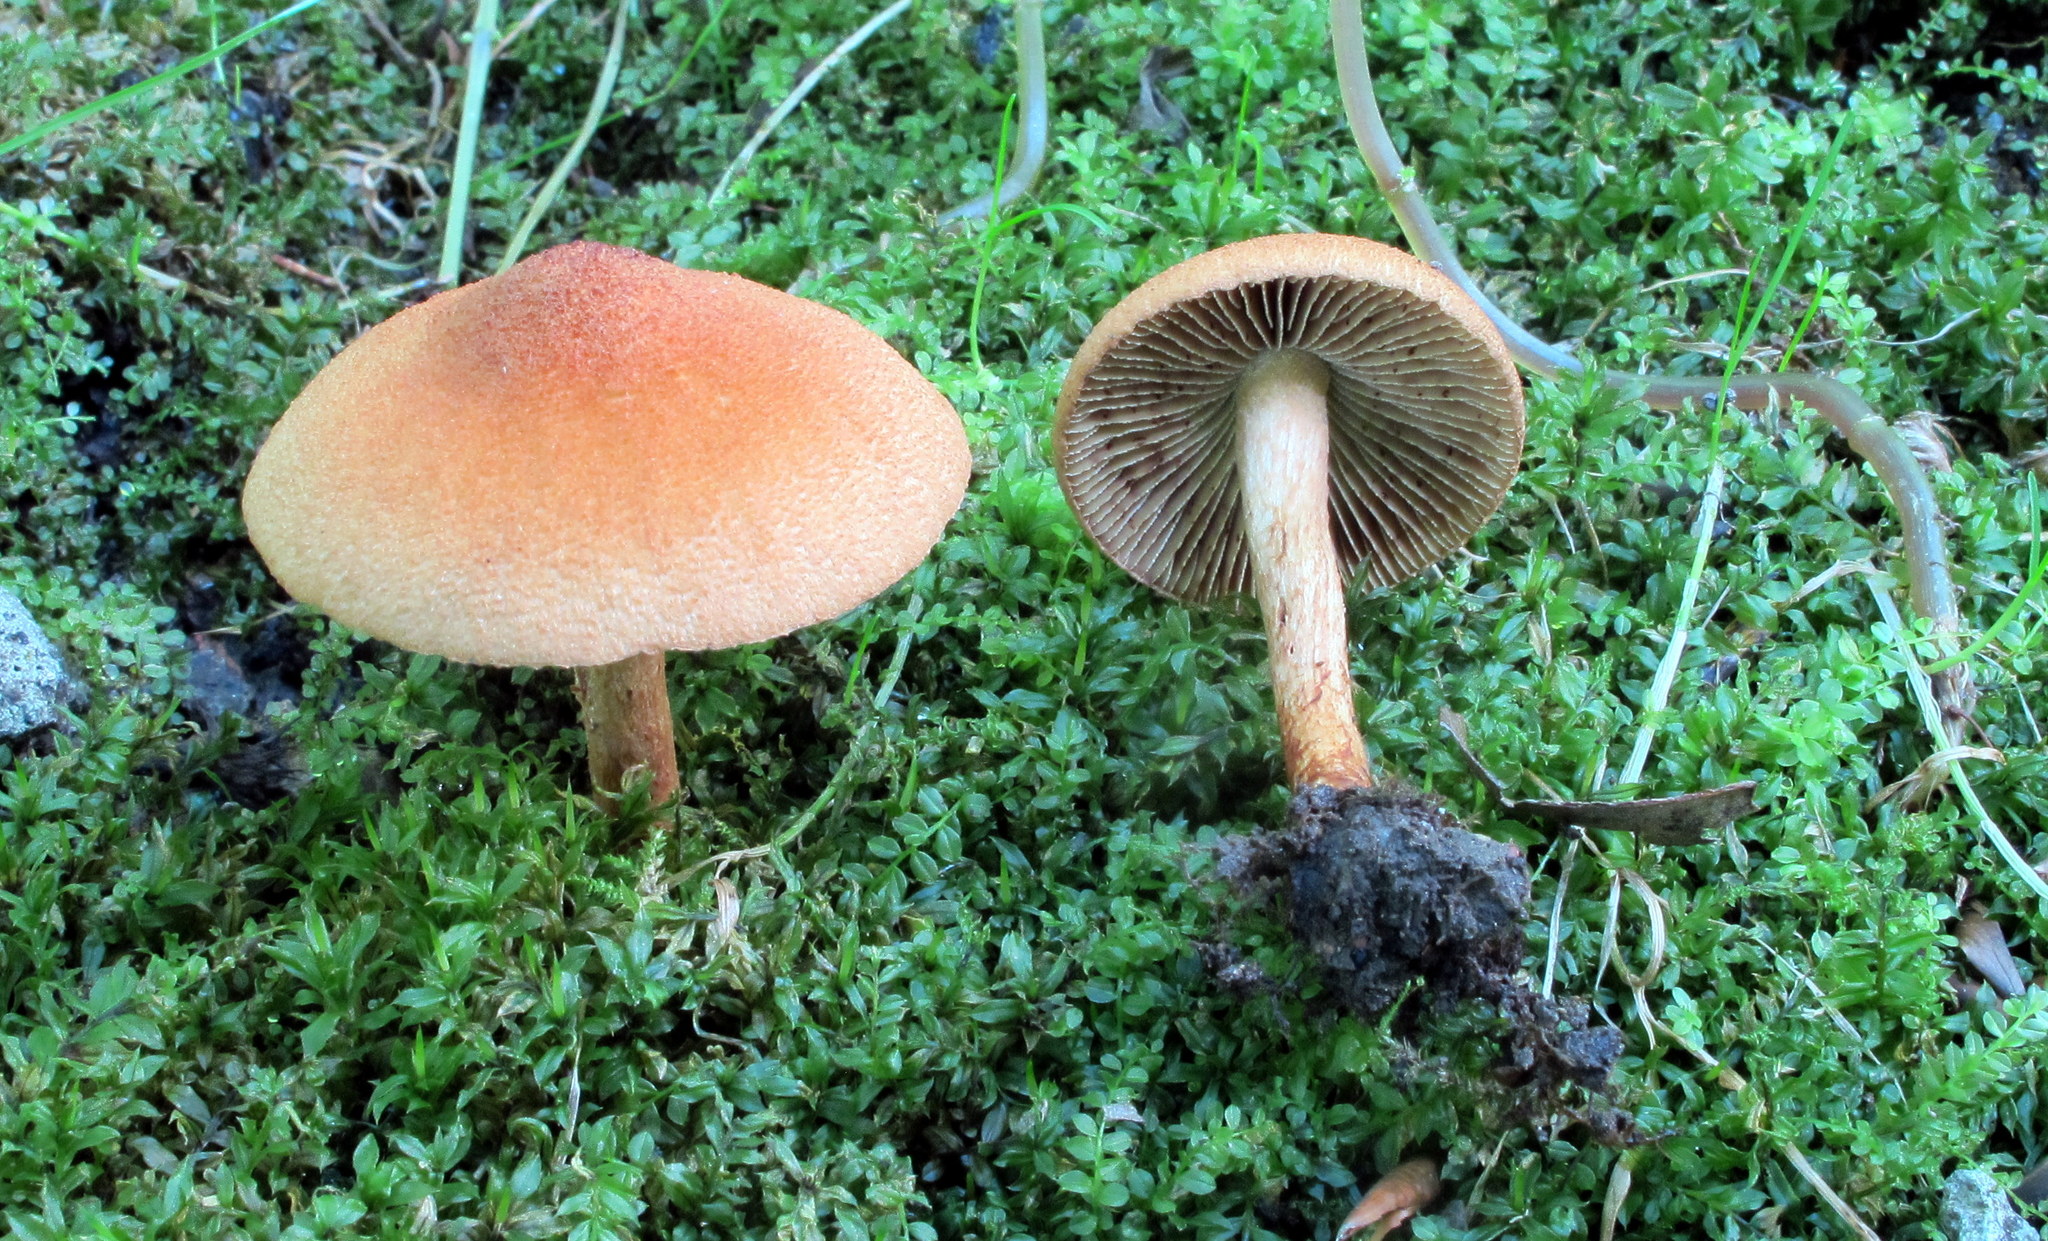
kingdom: Fungi
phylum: Basidiomycota
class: Agaricomycetes
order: Agaricales
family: Inocybaceae
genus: Mallocybe
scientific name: Mallocybe unicolor
